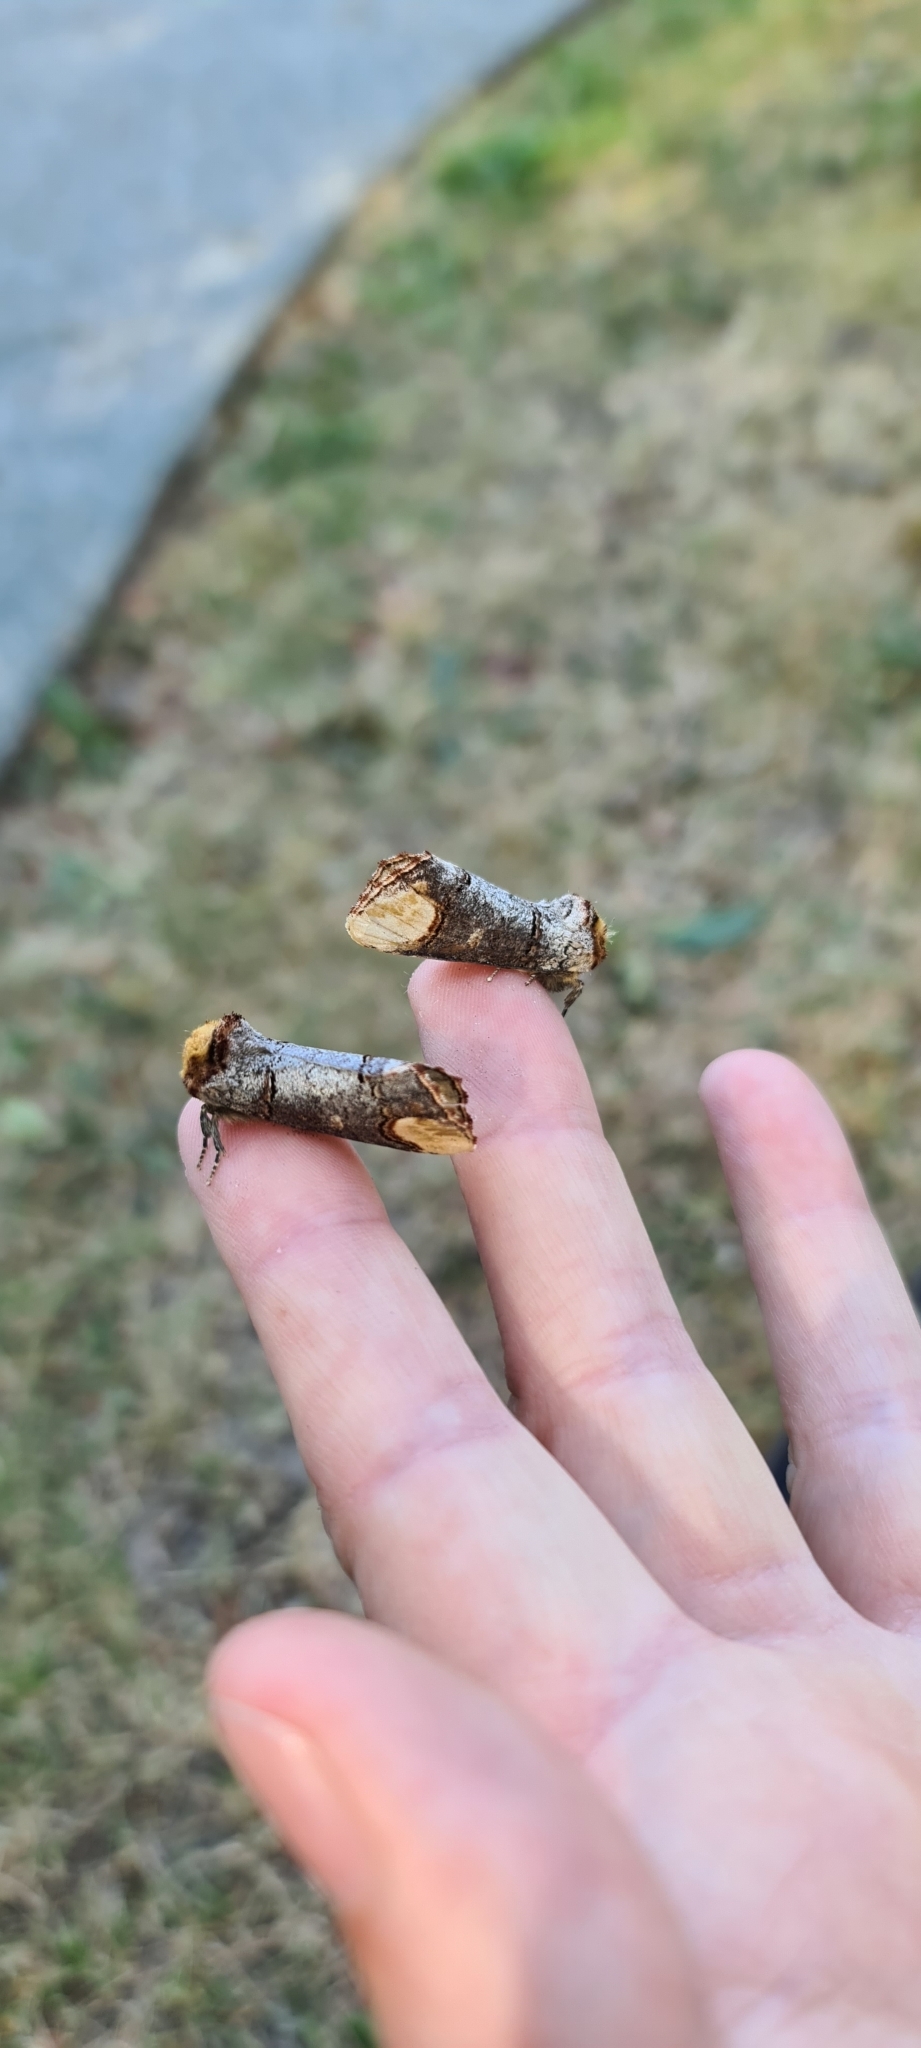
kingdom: Animalia
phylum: Arthropoda
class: Insecta
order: Lepidoptera
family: Notodontidae
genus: Phalera
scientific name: Phalera bucephala
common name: Buff-tip
